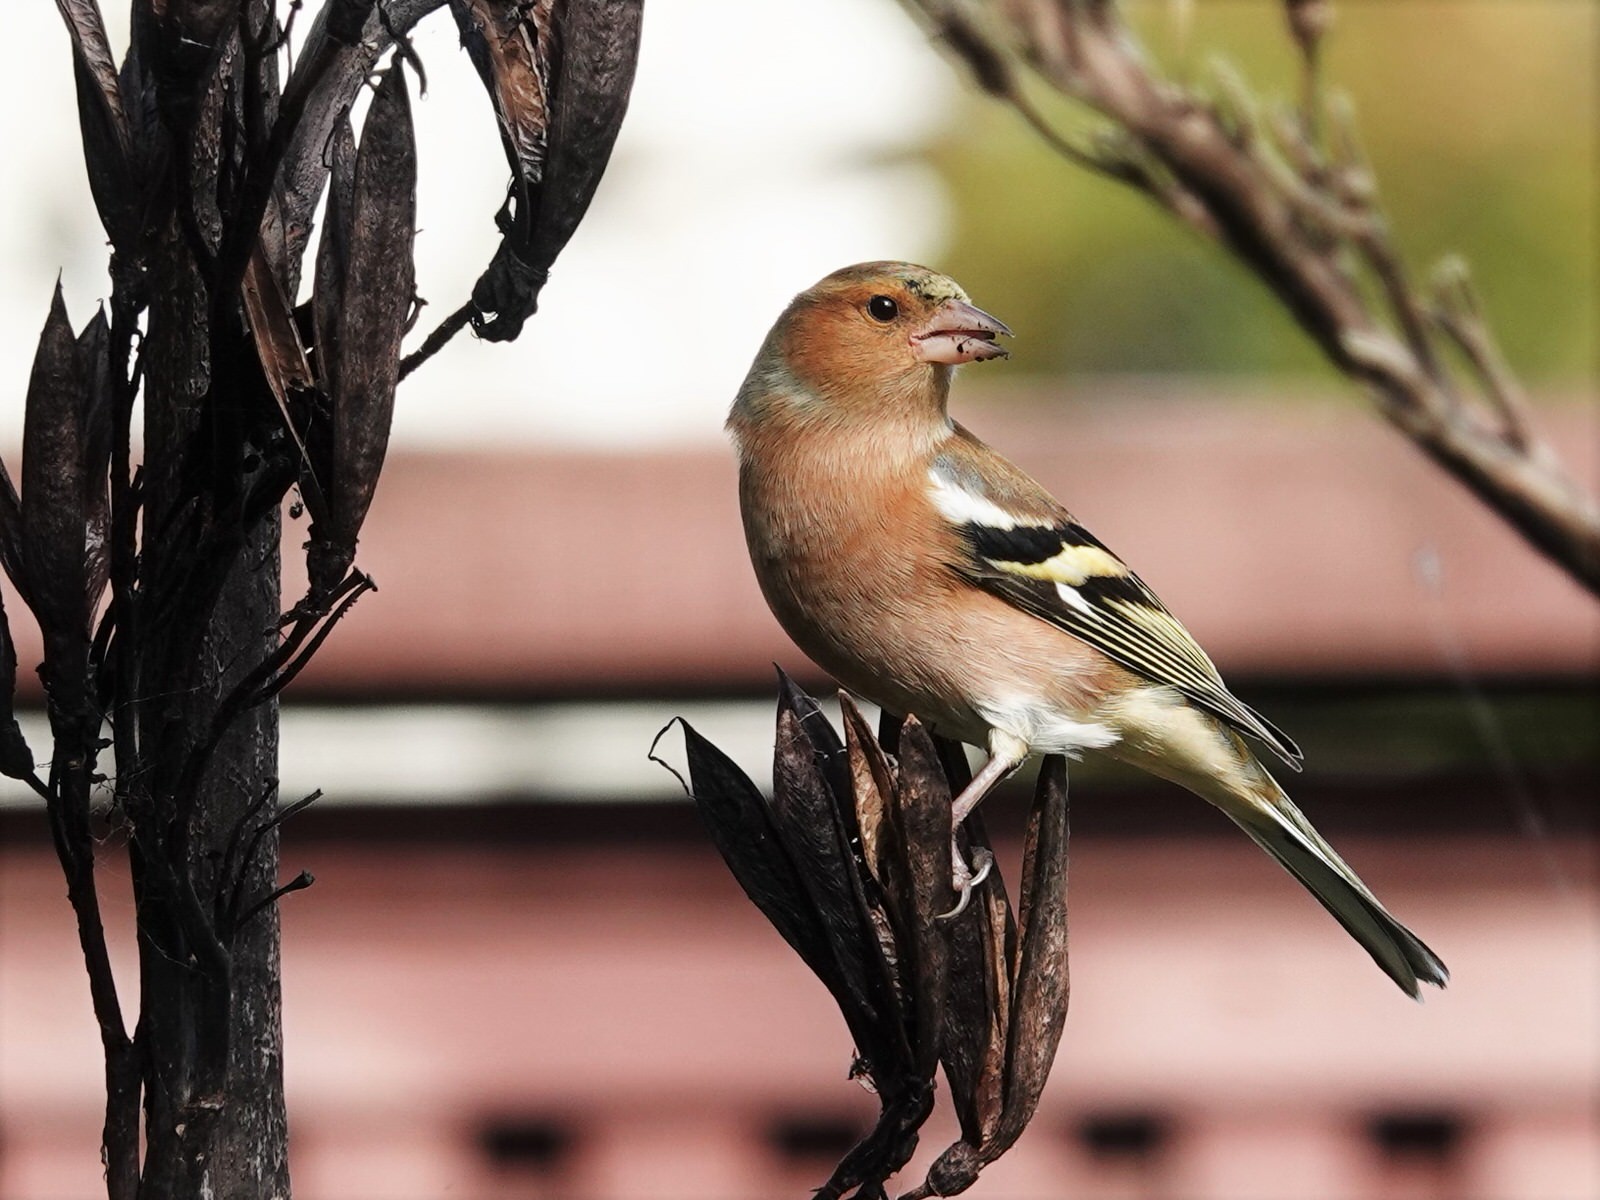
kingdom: Animalia
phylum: Chordata
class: Aves
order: Passeriformes
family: Fringillidae
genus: Fringilla
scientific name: Fringilla coelebs
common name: Common chaffinch
